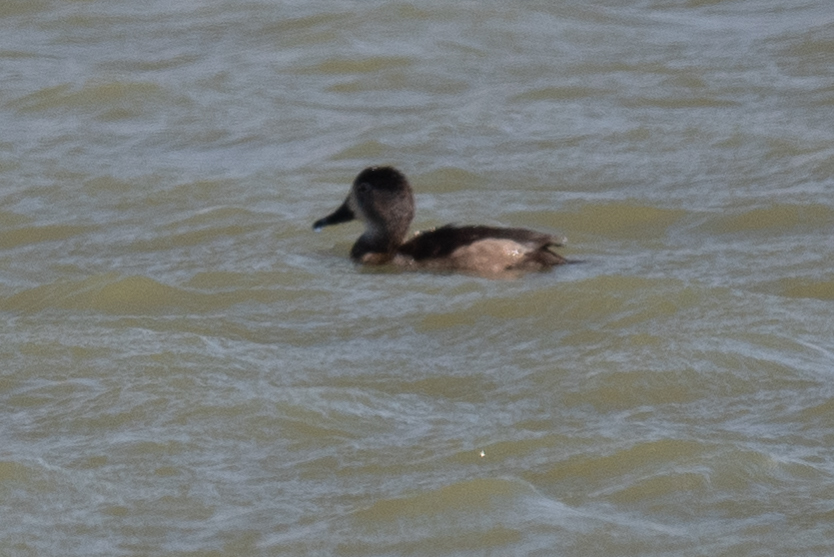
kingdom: Animalia
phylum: Chordata
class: Aves
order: Anseriformes
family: Anatidae
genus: Aythya
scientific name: Aythya collaris
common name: Ring-necked duck
